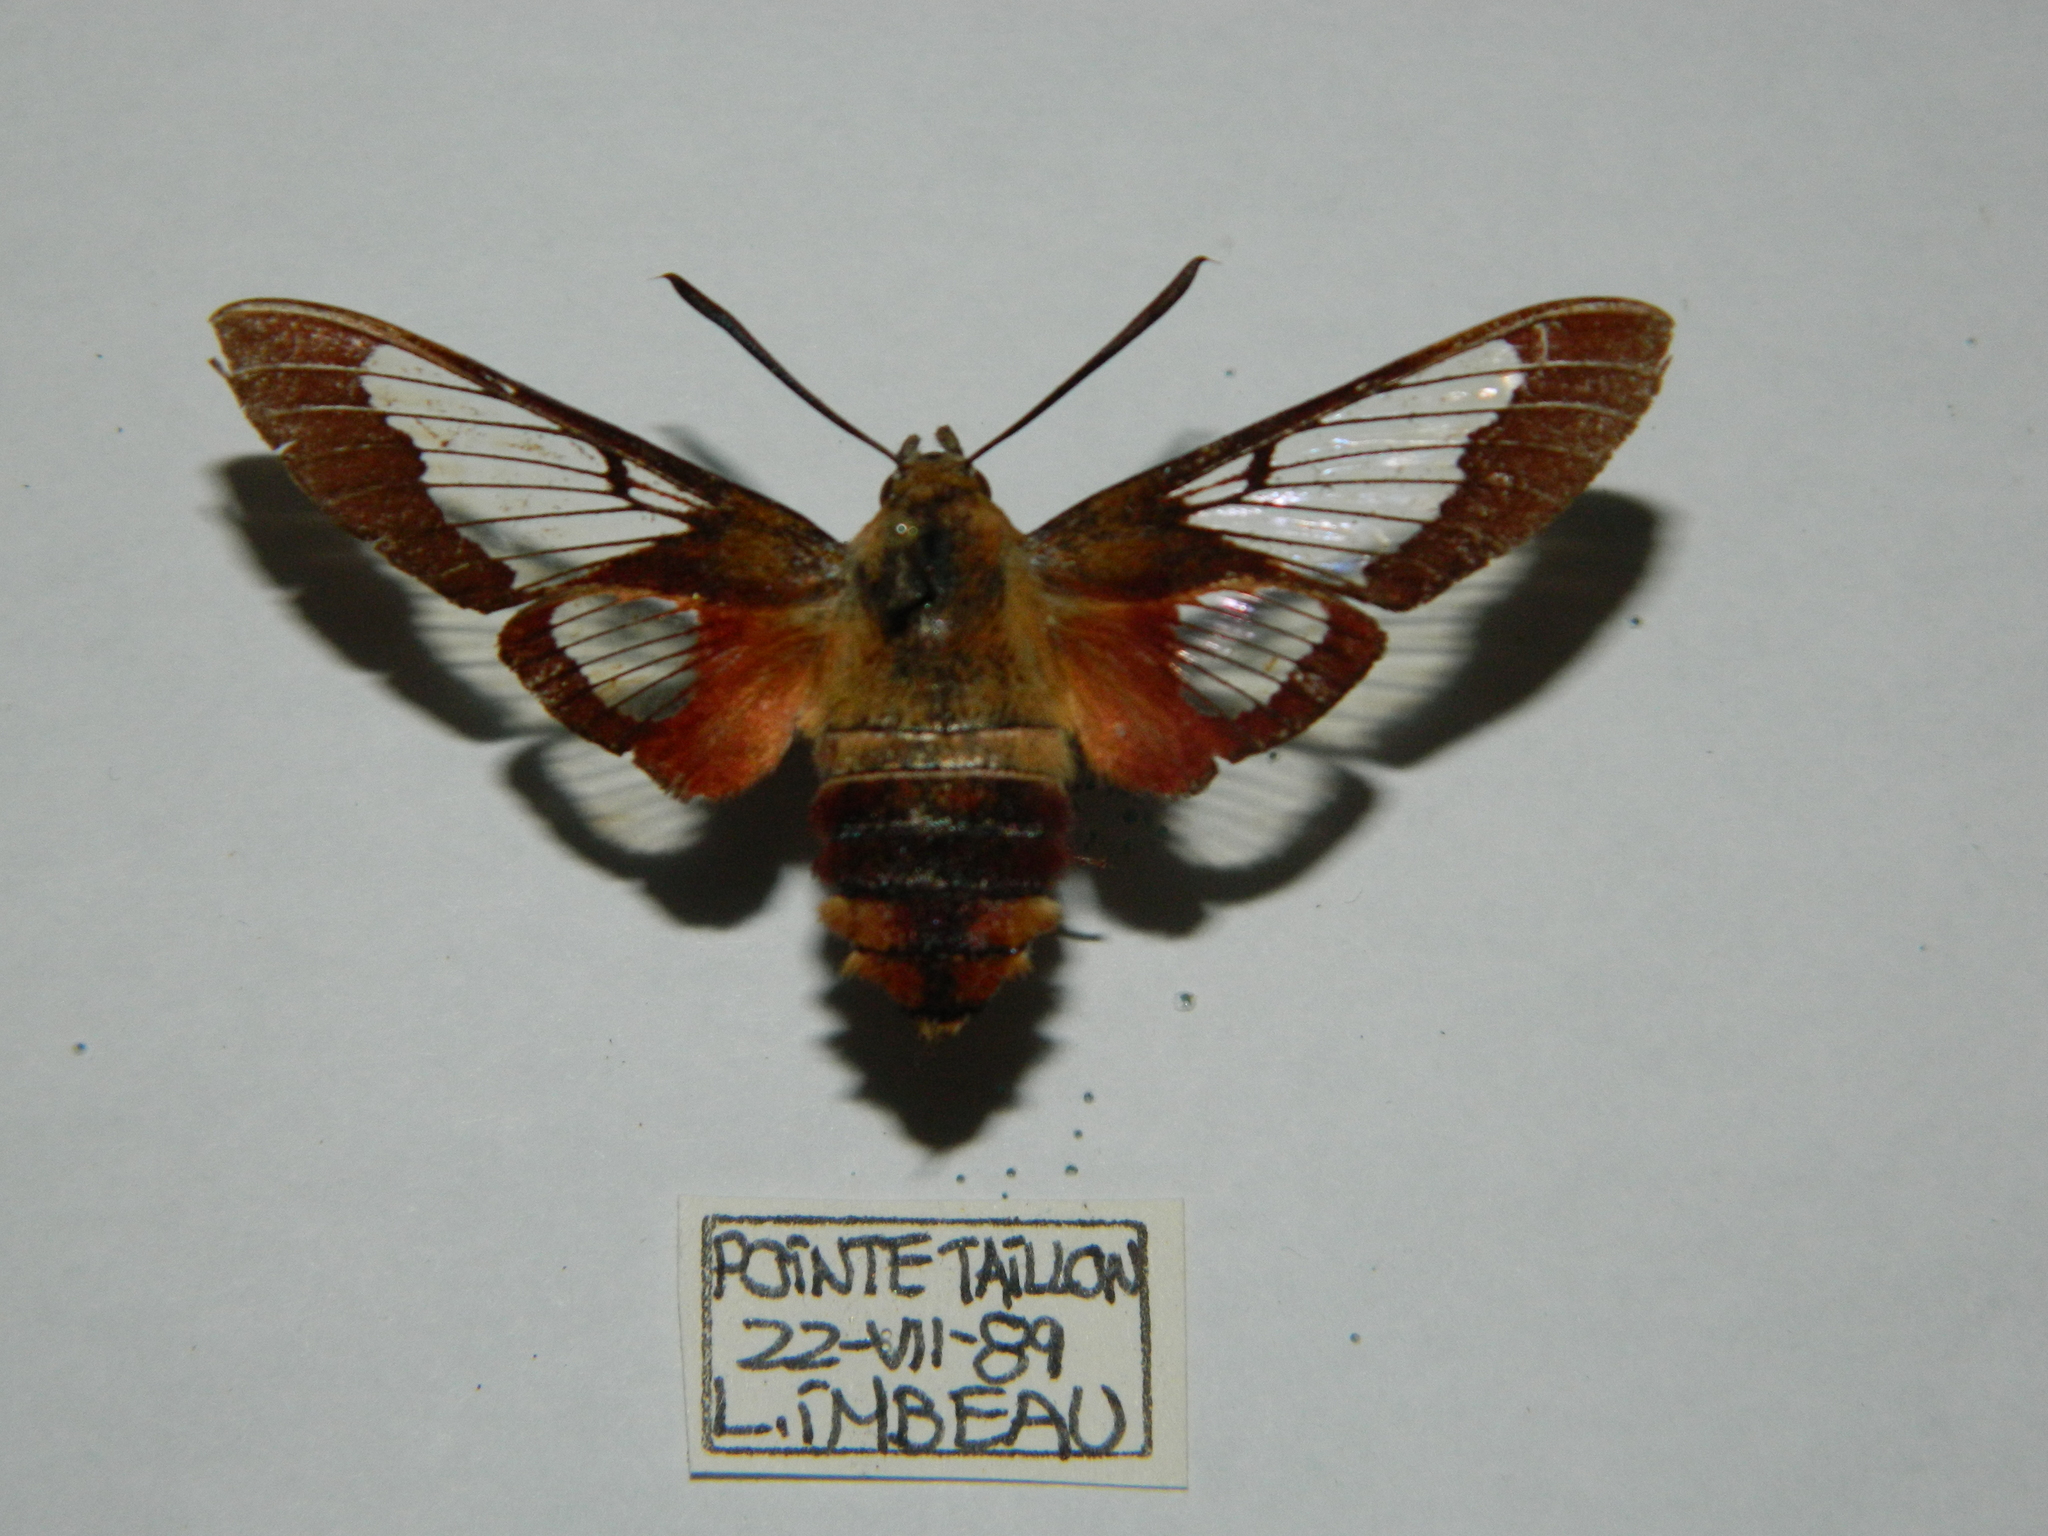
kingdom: Animalia
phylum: Arthropoda
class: Insecta
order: Lepidoptera
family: Sphingidae
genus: Hemaris
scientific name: Hemaris thysbe
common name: Common clear-wing
